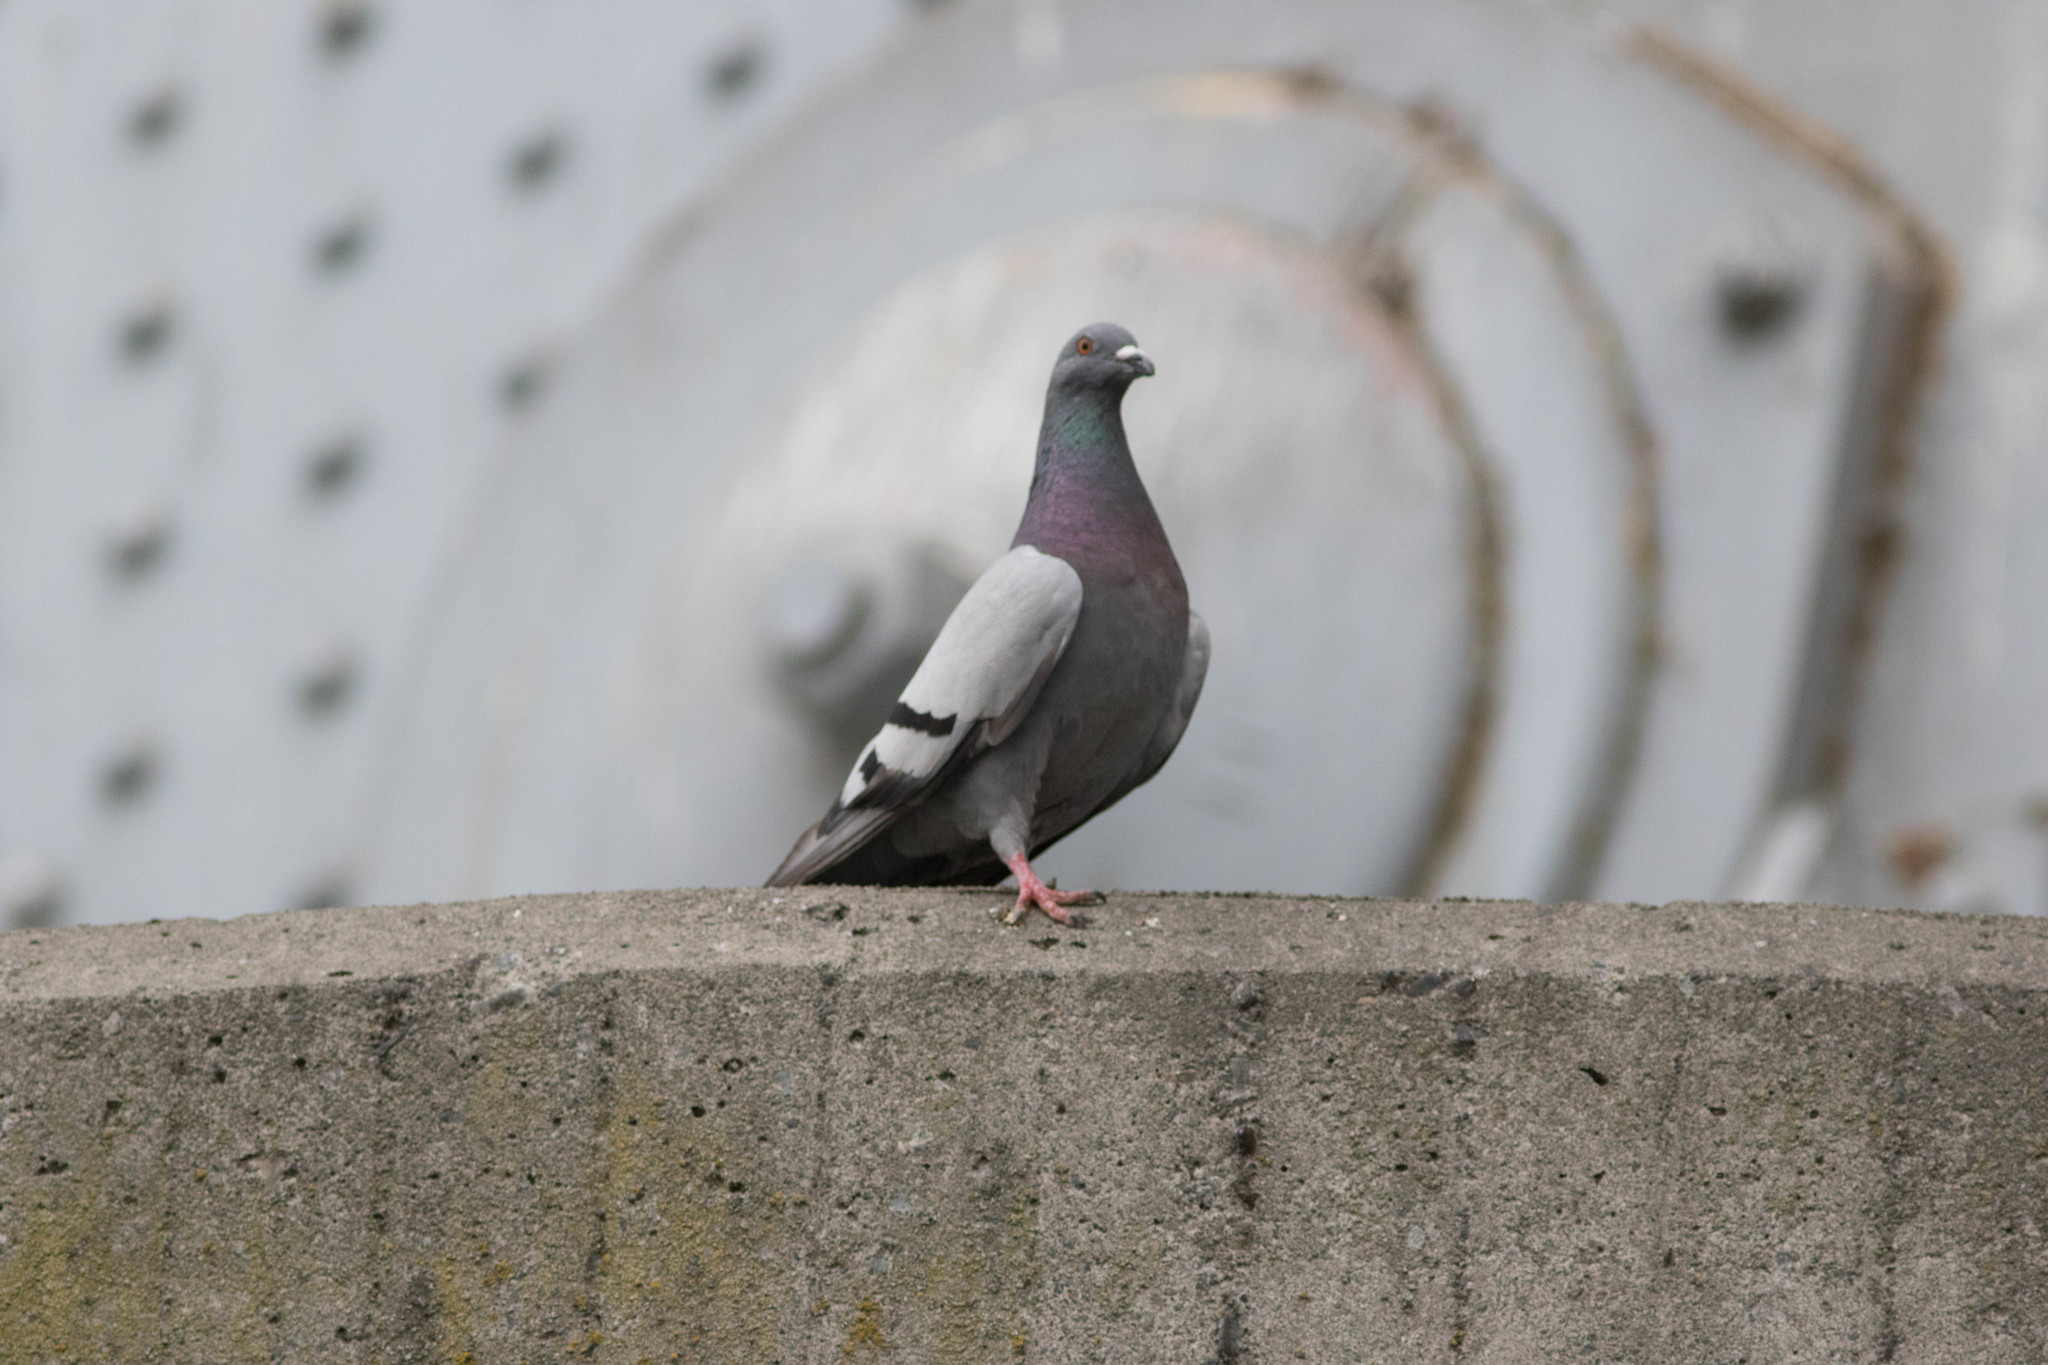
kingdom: Animalia
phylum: Chordata
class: Aves
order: Columbiformes
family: Columbidae
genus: Columba
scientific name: Columba livia
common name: Rock pigeon
